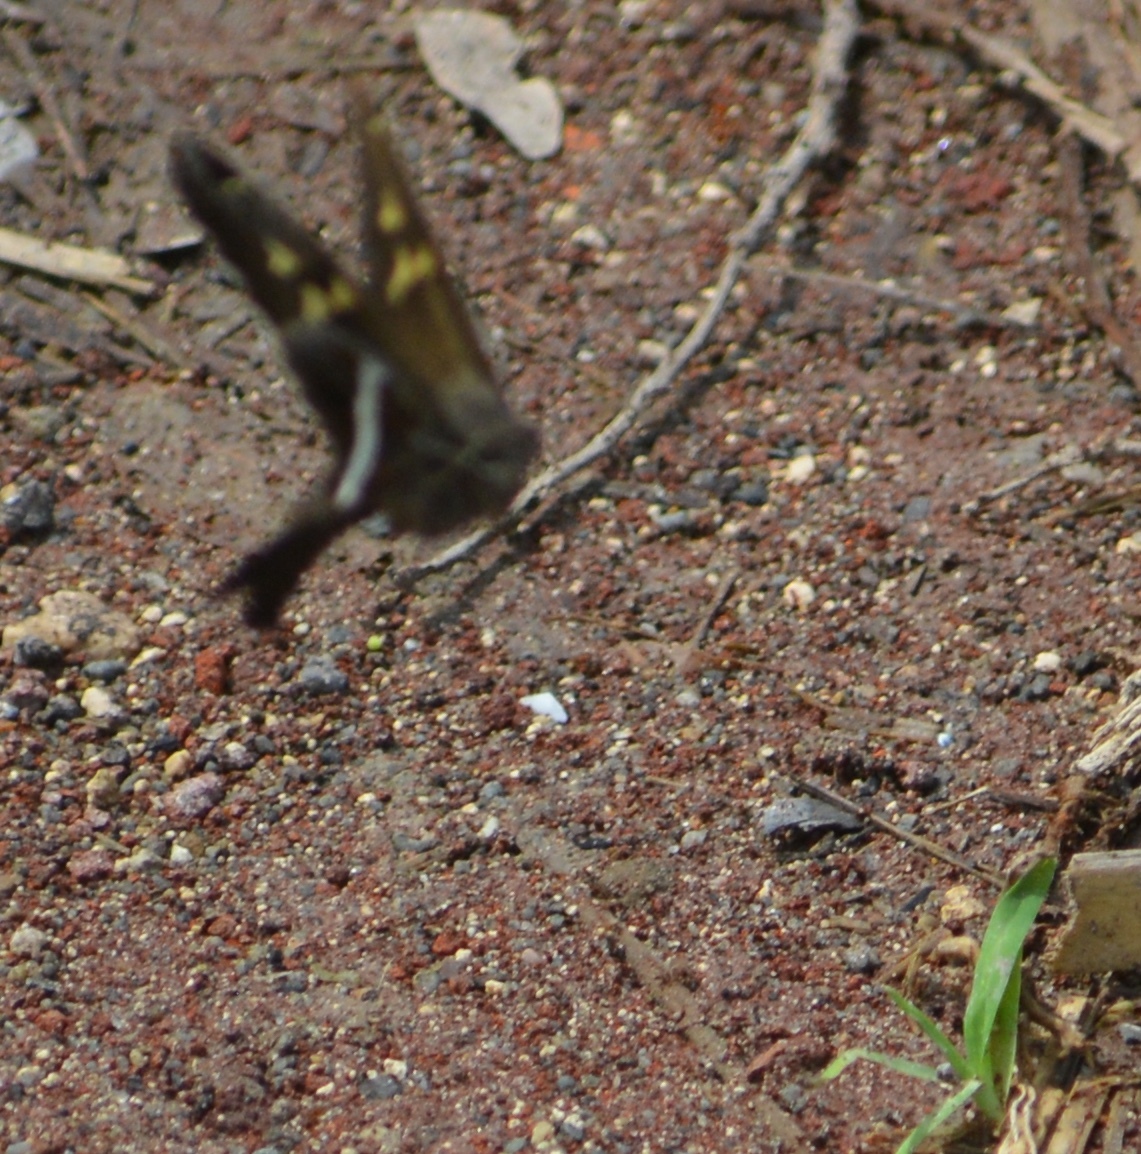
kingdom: Animalia
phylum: Arthropoda
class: Insecta
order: Lepidoptera
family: Hesperiidae
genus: Chioides
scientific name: Chioides catillus
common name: Silverbanded skipper
